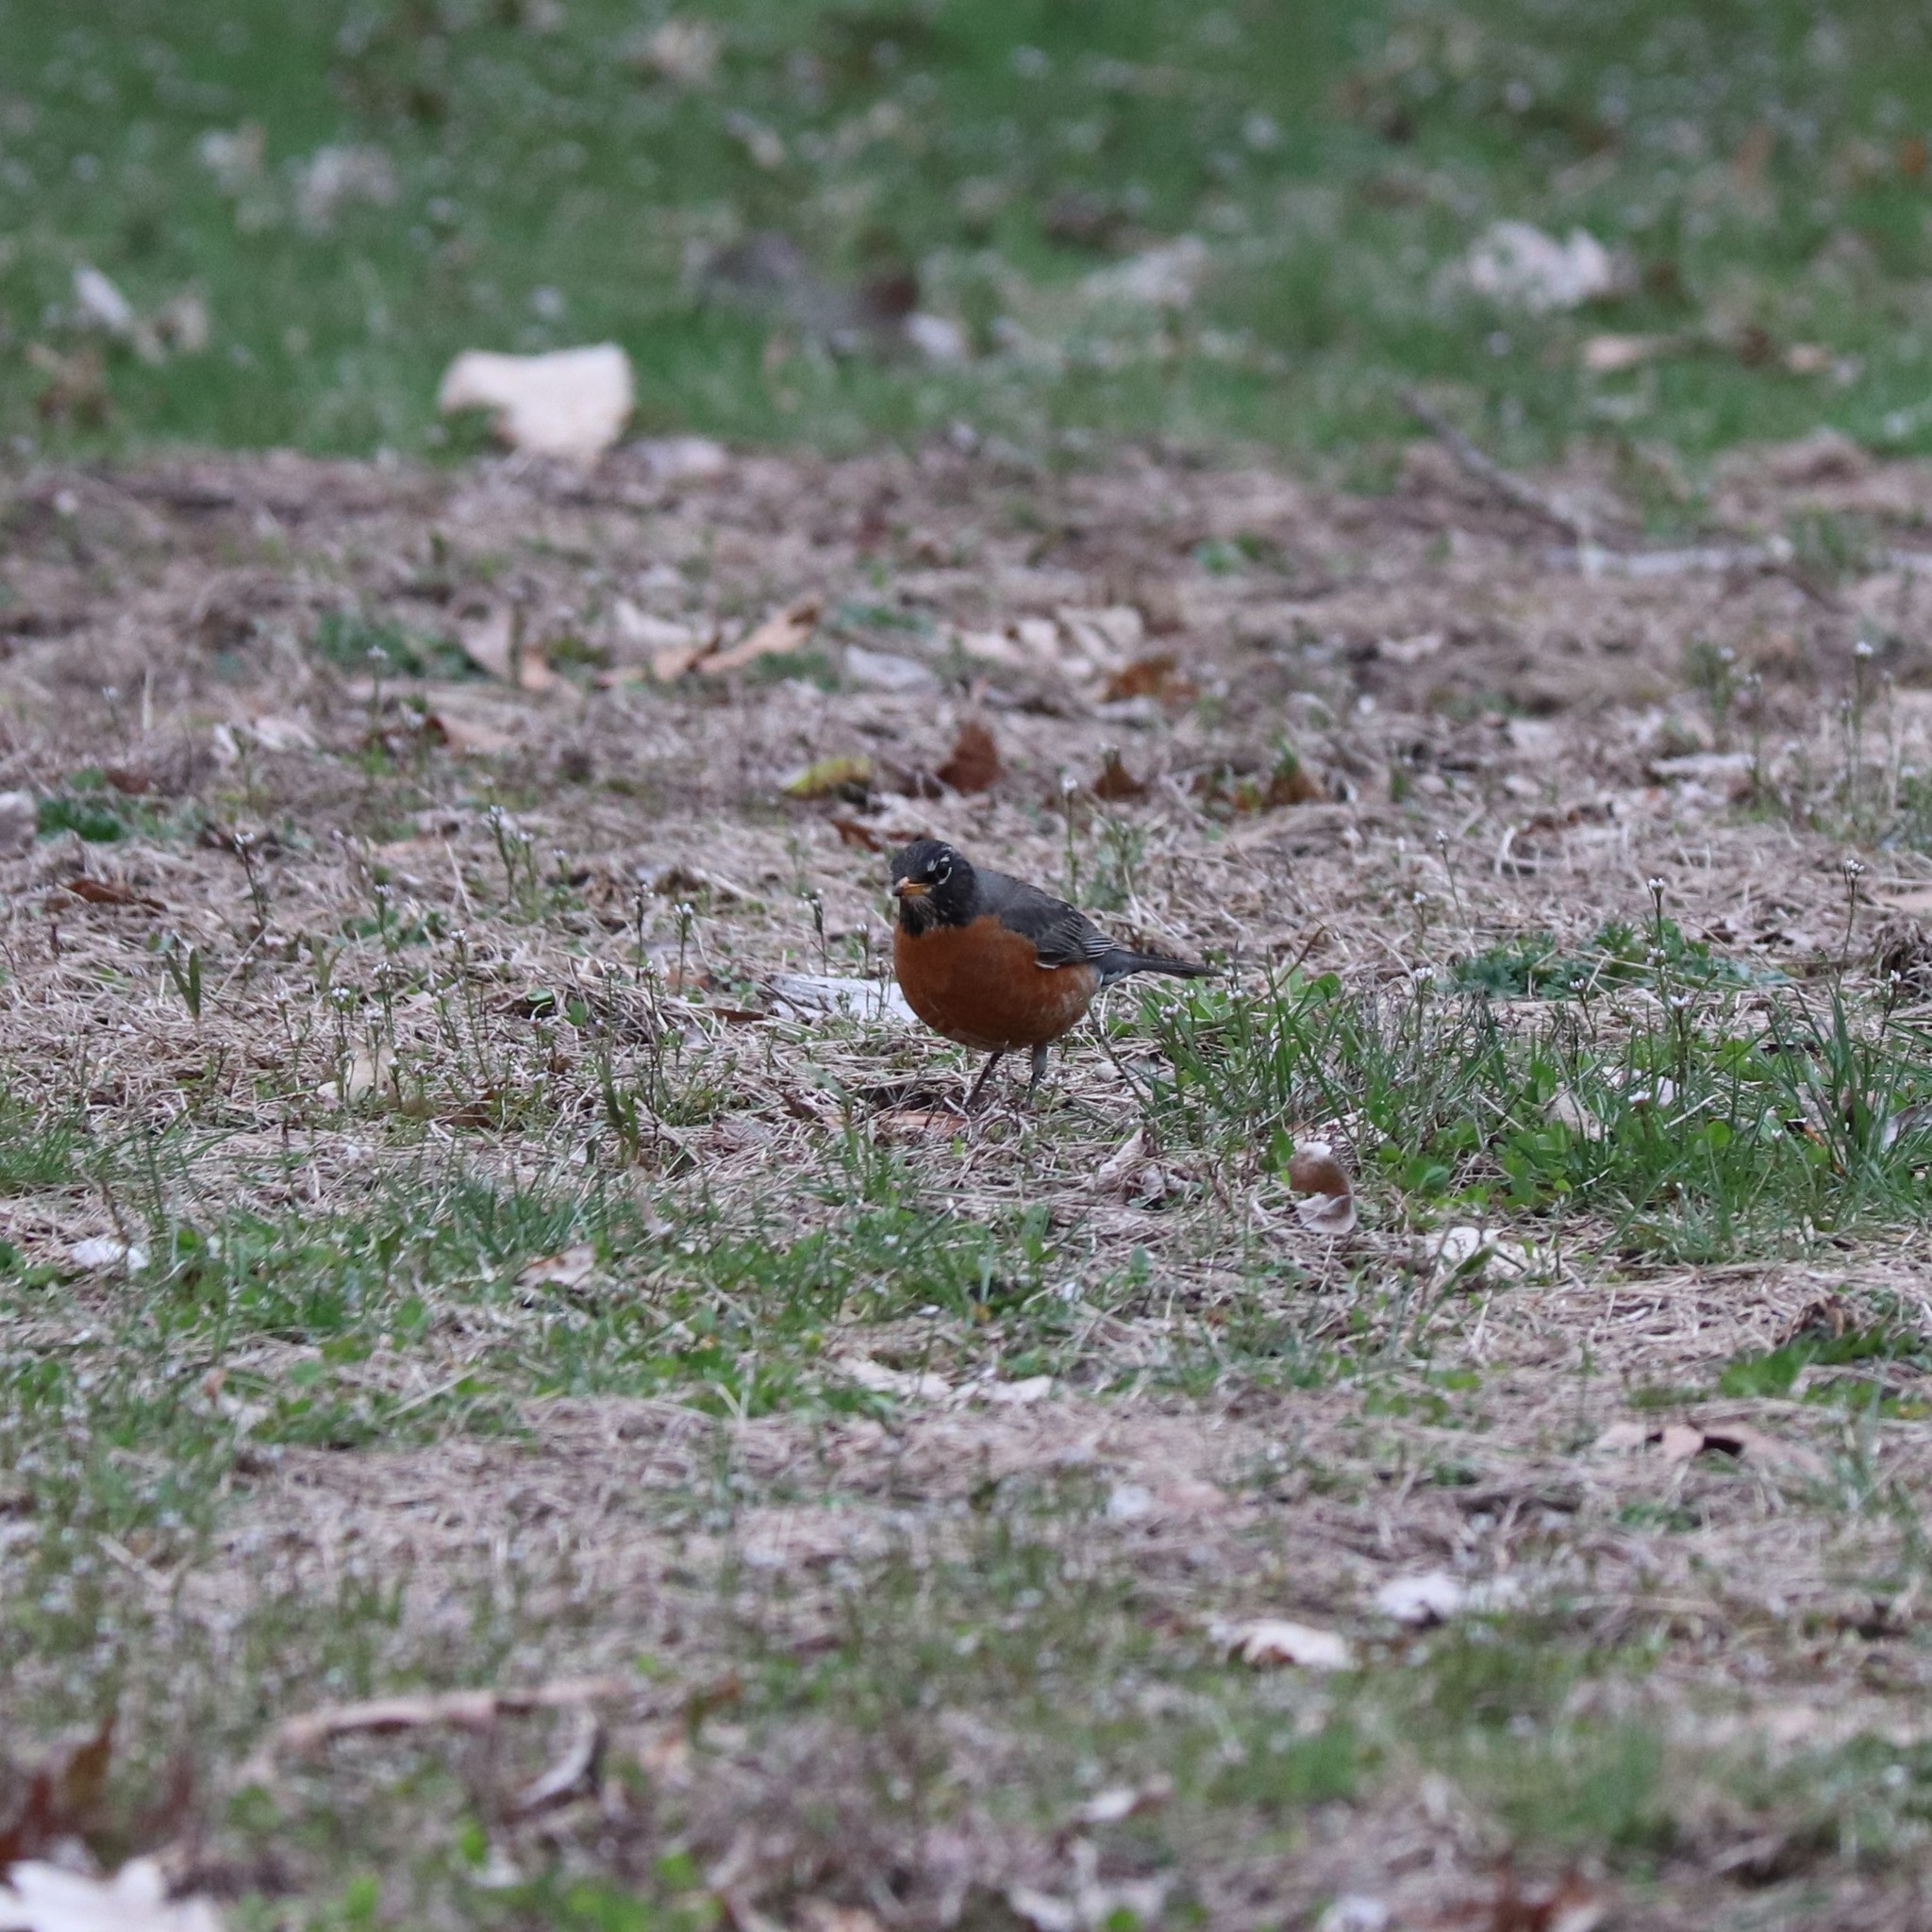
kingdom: Animalia
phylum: Chordata
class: Aves
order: Passeriformes
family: Turdidae
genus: Turdus
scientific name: Turdus migratorius
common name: American robin
